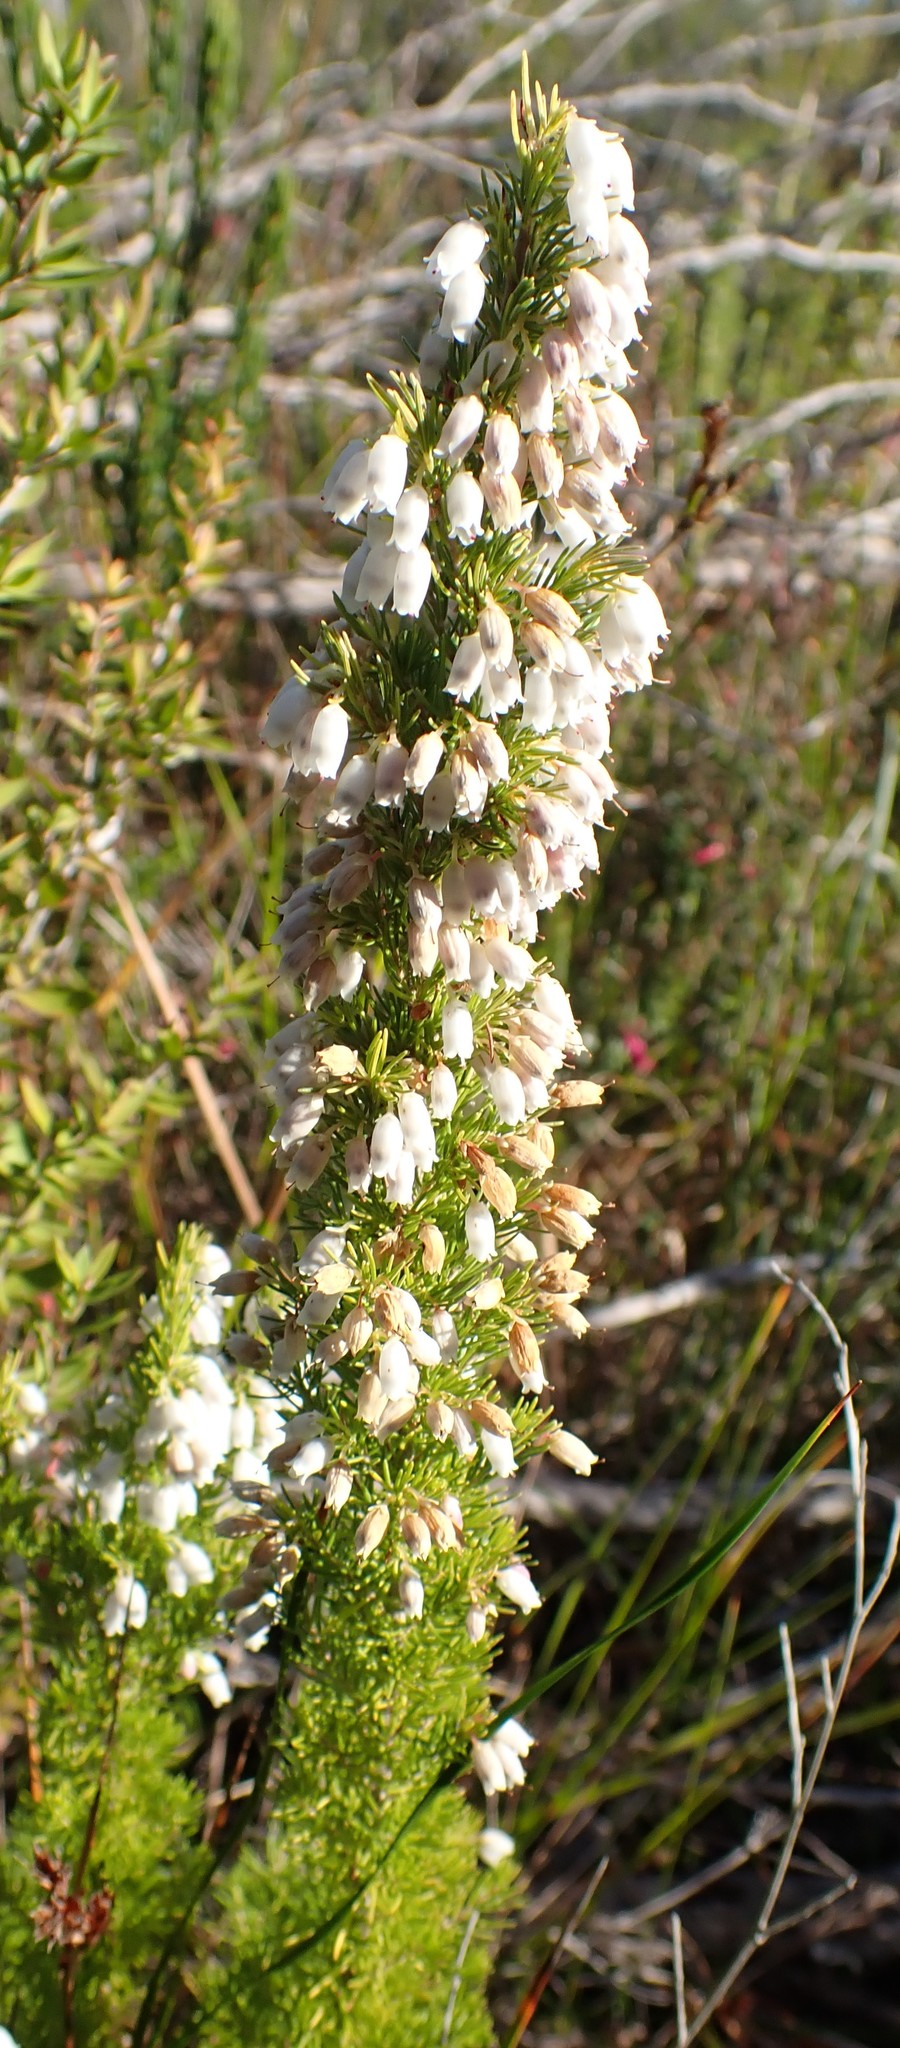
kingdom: Plantae
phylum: Tracheophyta
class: Magnoliopsida
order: Ericales
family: Ericaceae
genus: Erica
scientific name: Erica lusitanica
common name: Spanish heath
